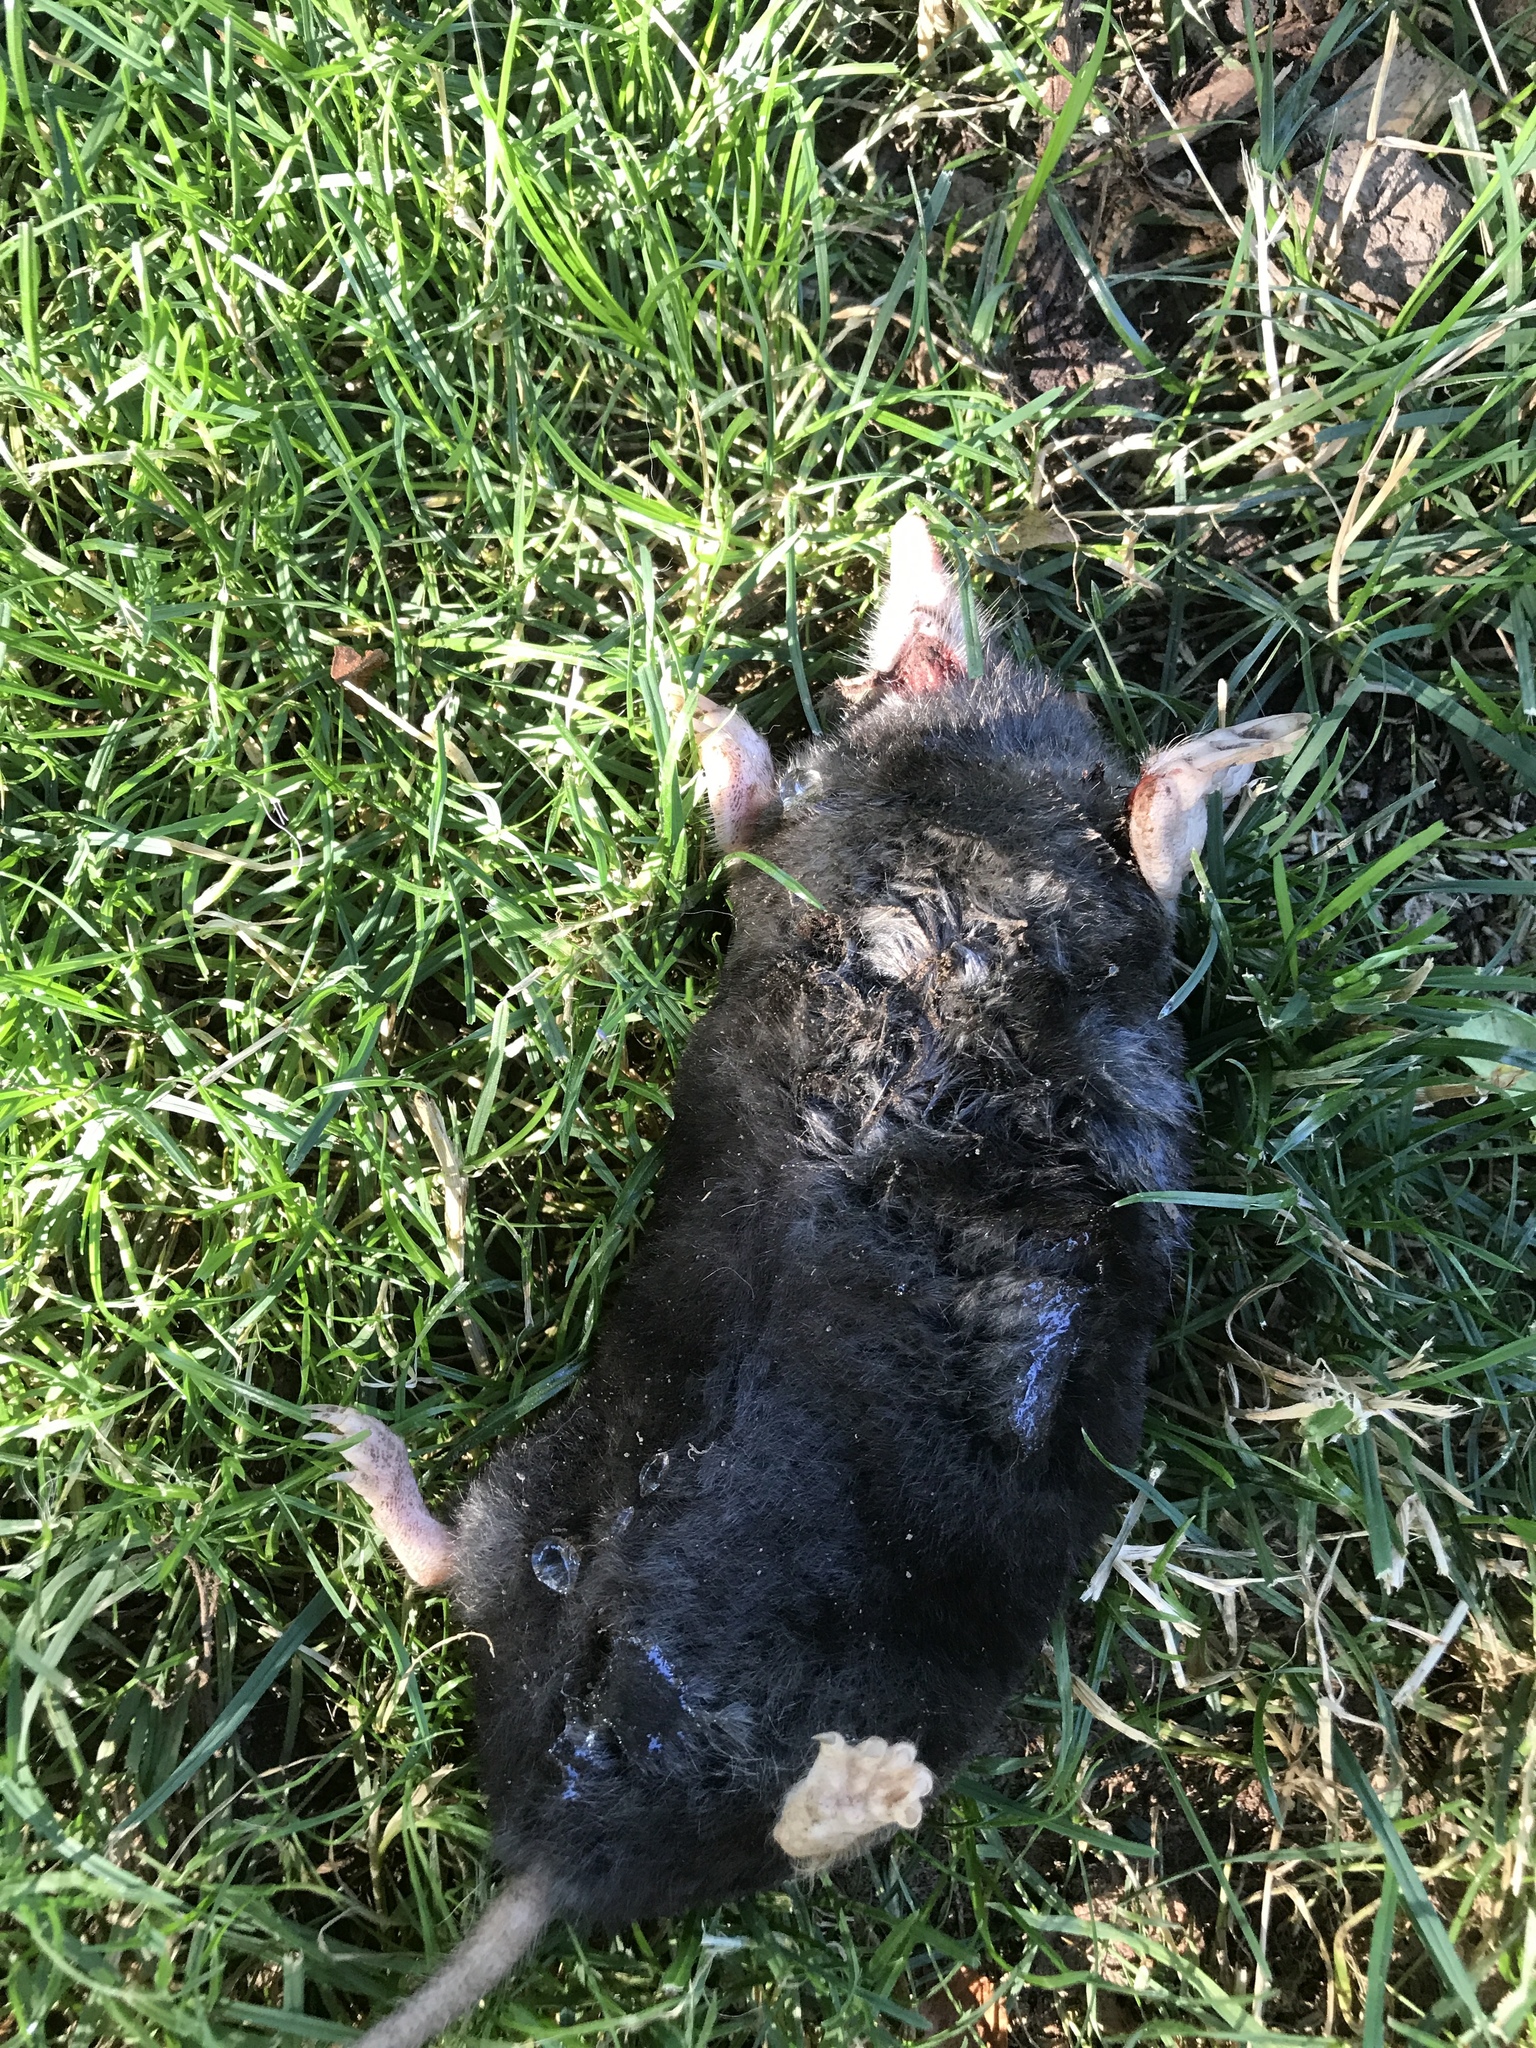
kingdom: Animalia
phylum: Chordata
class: Mammalia
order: Soricomorpha
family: Talpidae
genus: Neurotrichus
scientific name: Neurotrichus gibbsii
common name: American shrew mole
